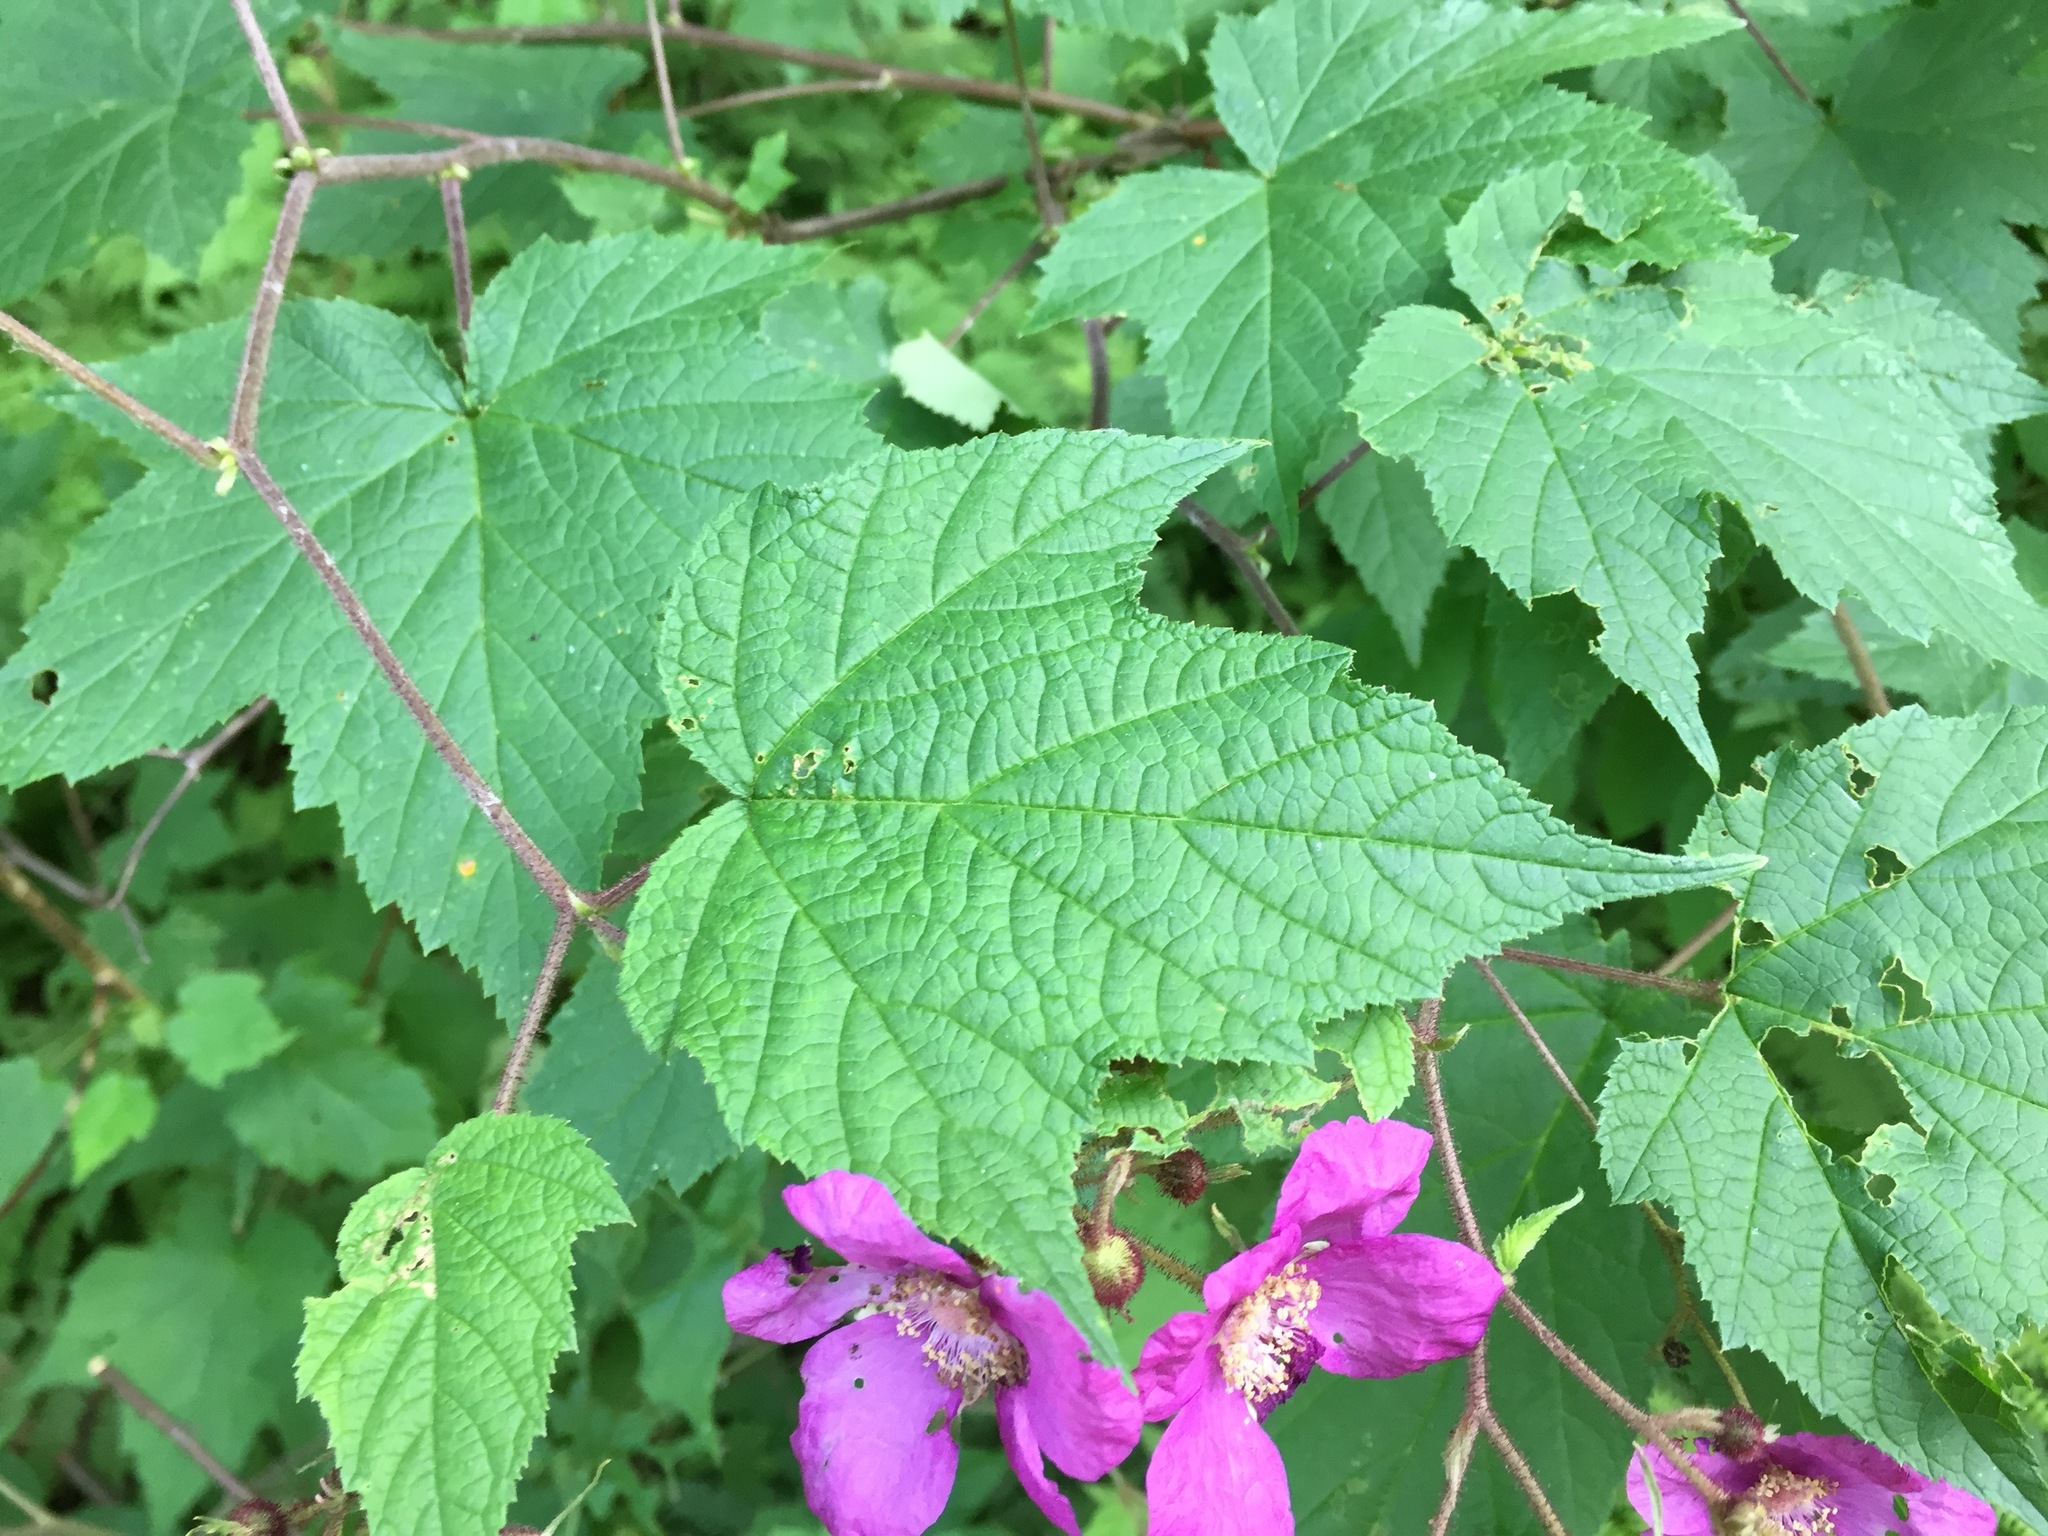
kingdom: Plantae
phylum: Tracheophyta
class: Magnoliopsida
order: Rosales
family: Rosaceae
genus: Rubus
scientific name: Rubus odoratus
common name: Purple-flowered raspberry
